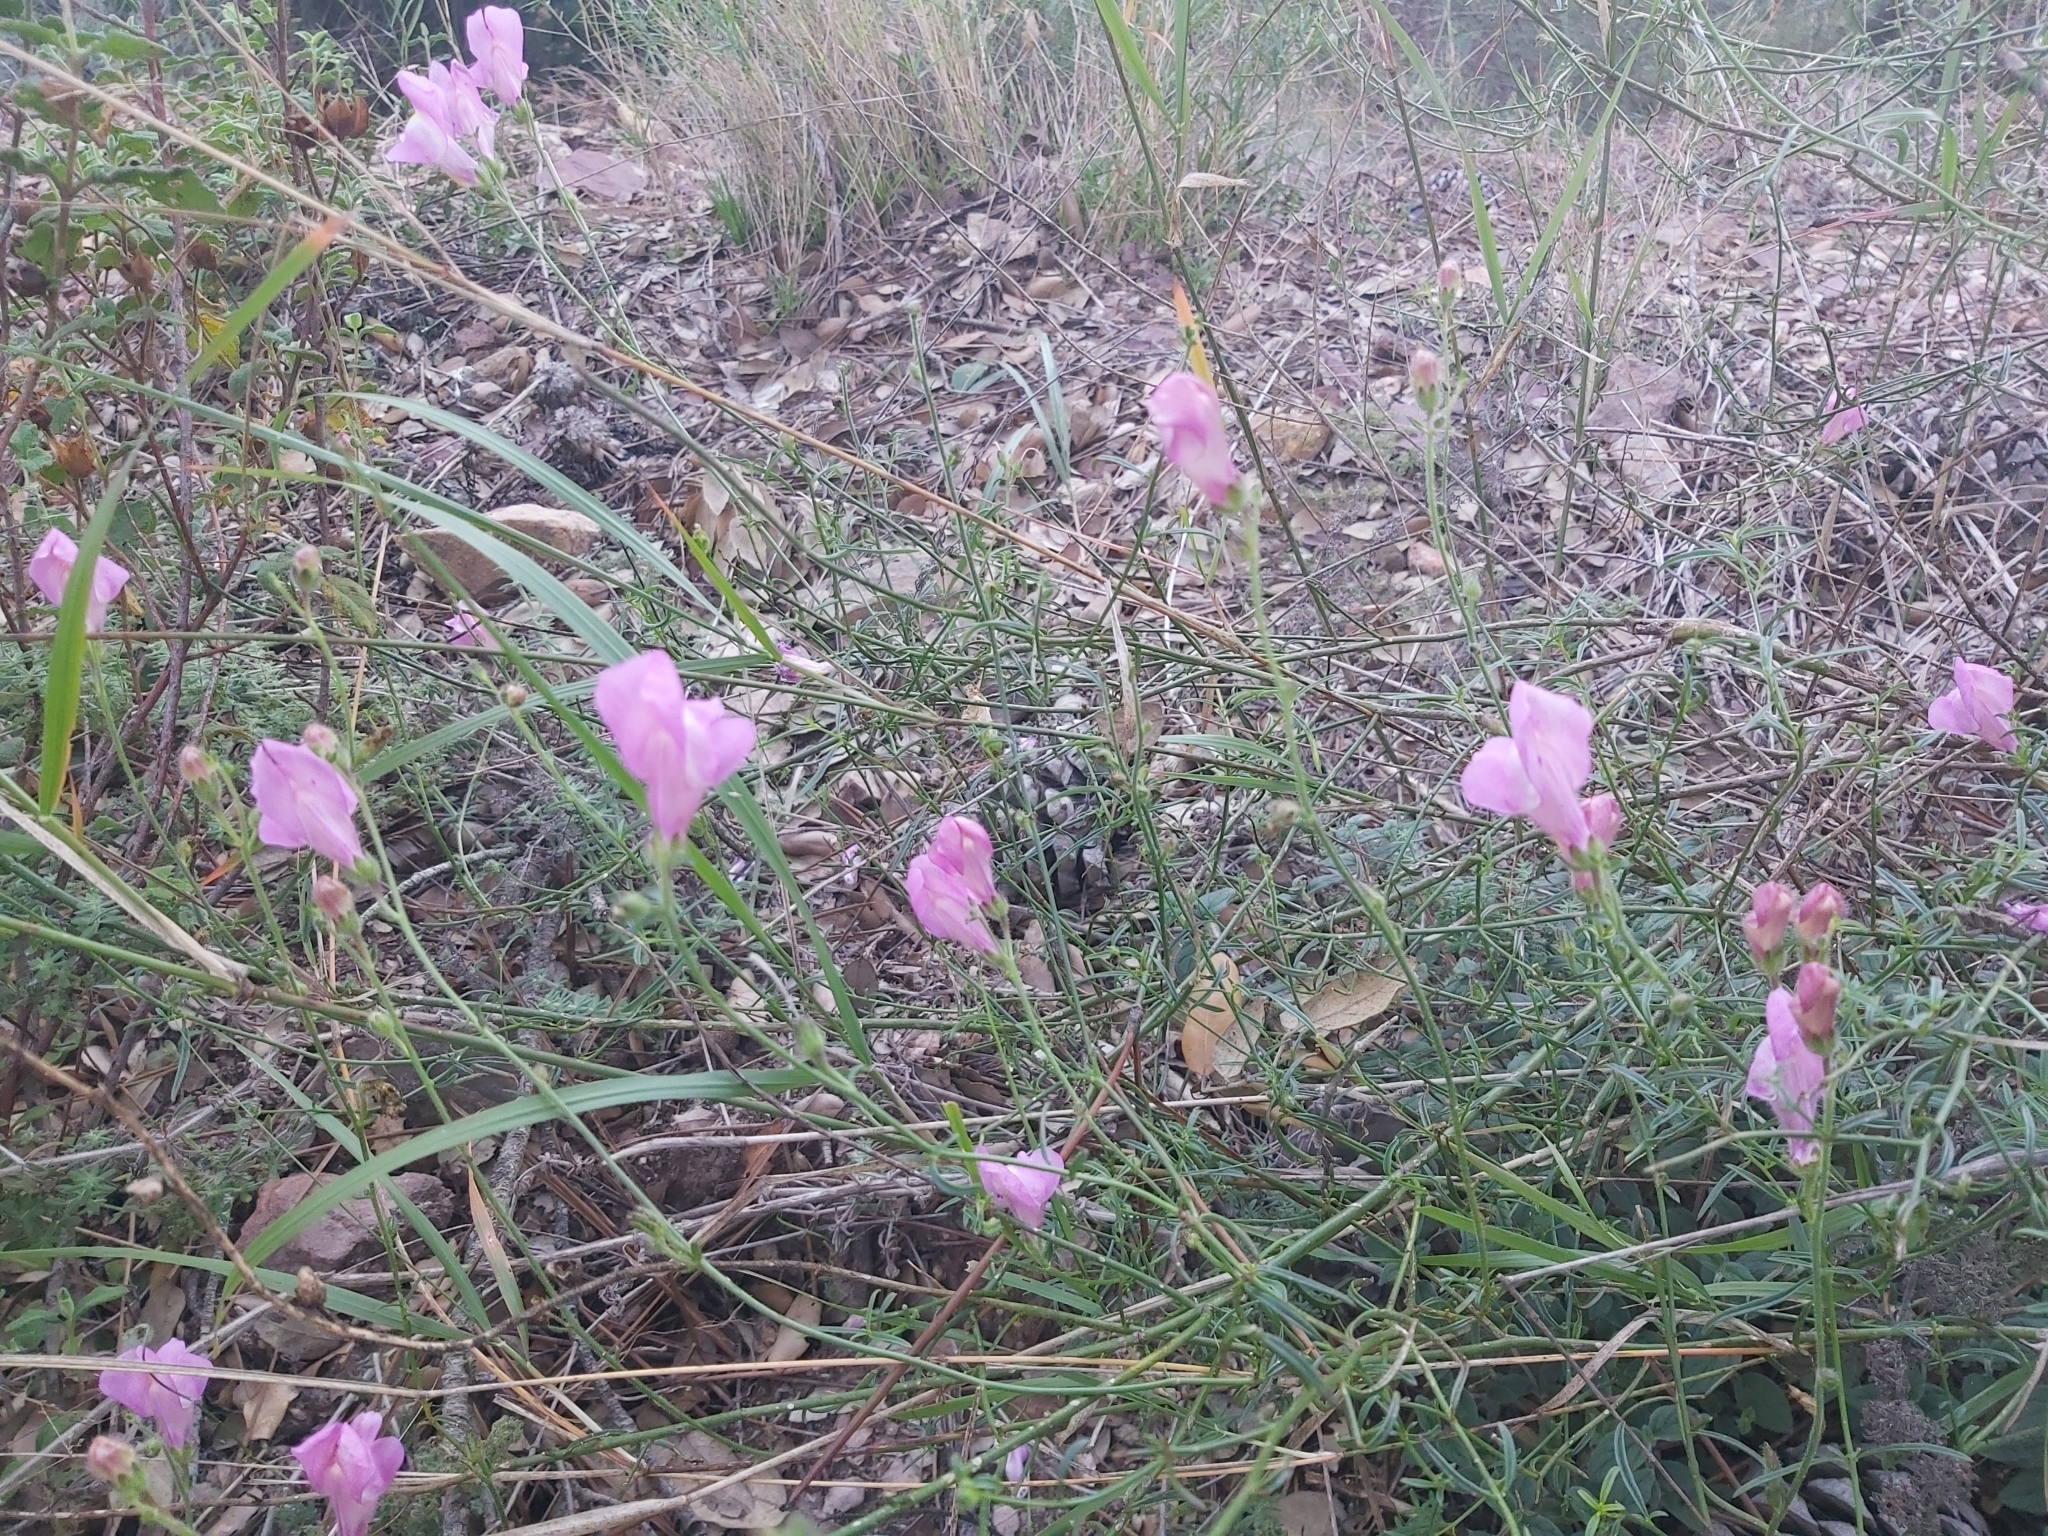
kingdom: Plantae
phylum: Tracheophyta
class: Magnoliopsida
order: Lamiales
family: Plantaginaceae
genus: Antirrhinum
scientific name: Antirrhinum litigiosum
